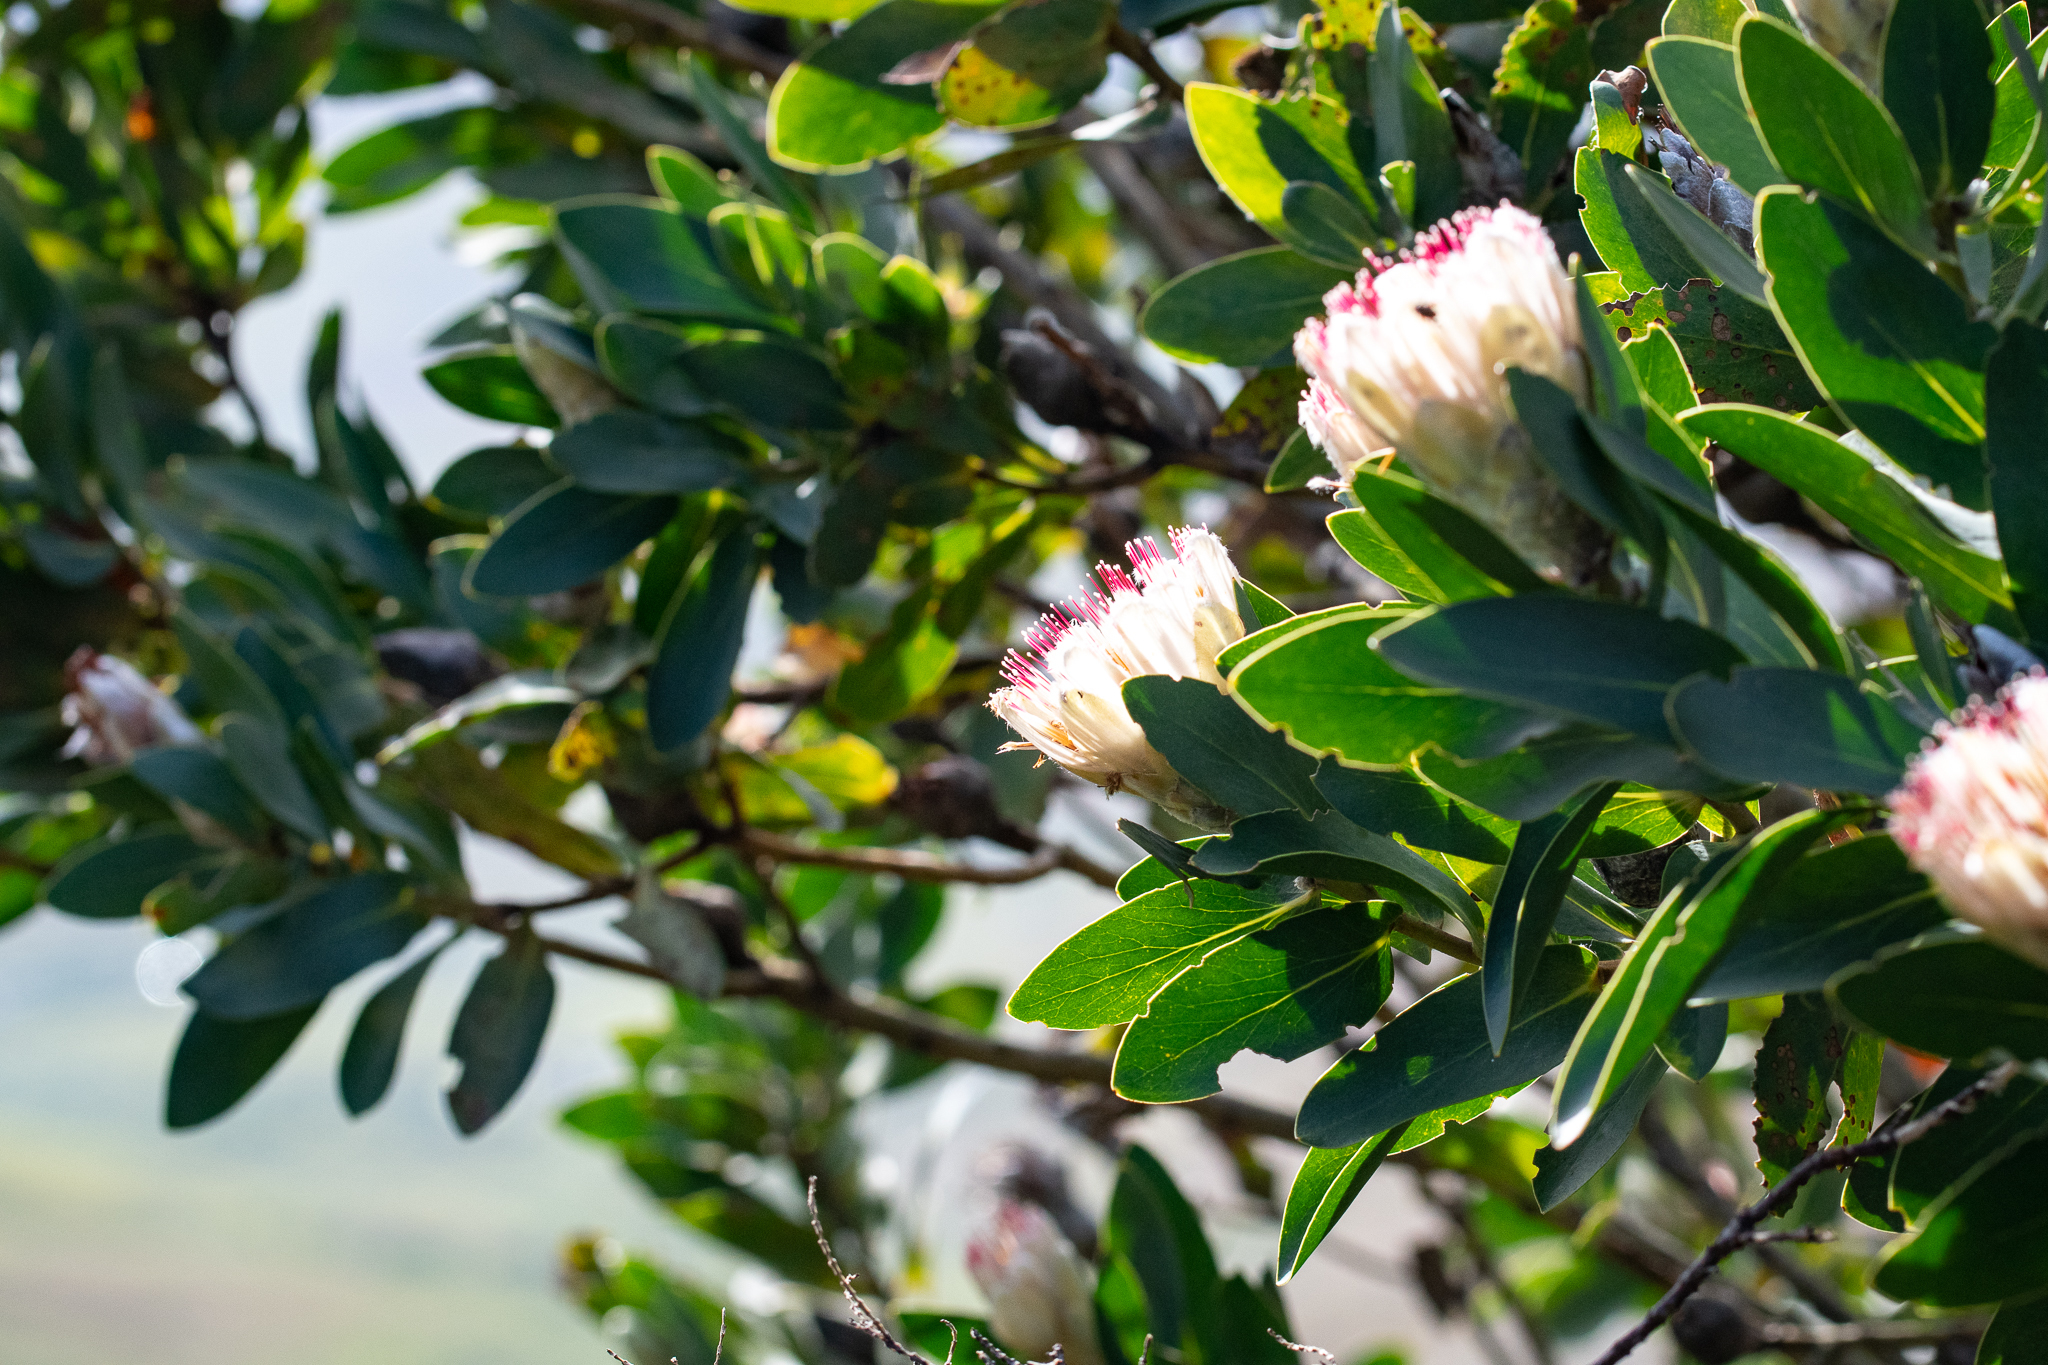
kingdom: Plantae
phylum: Tracheophyta
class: Magnoliopsida
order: Proteales
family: Proteaceae
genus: Protea
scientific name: Protea mundii
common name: Forest sugarbush
